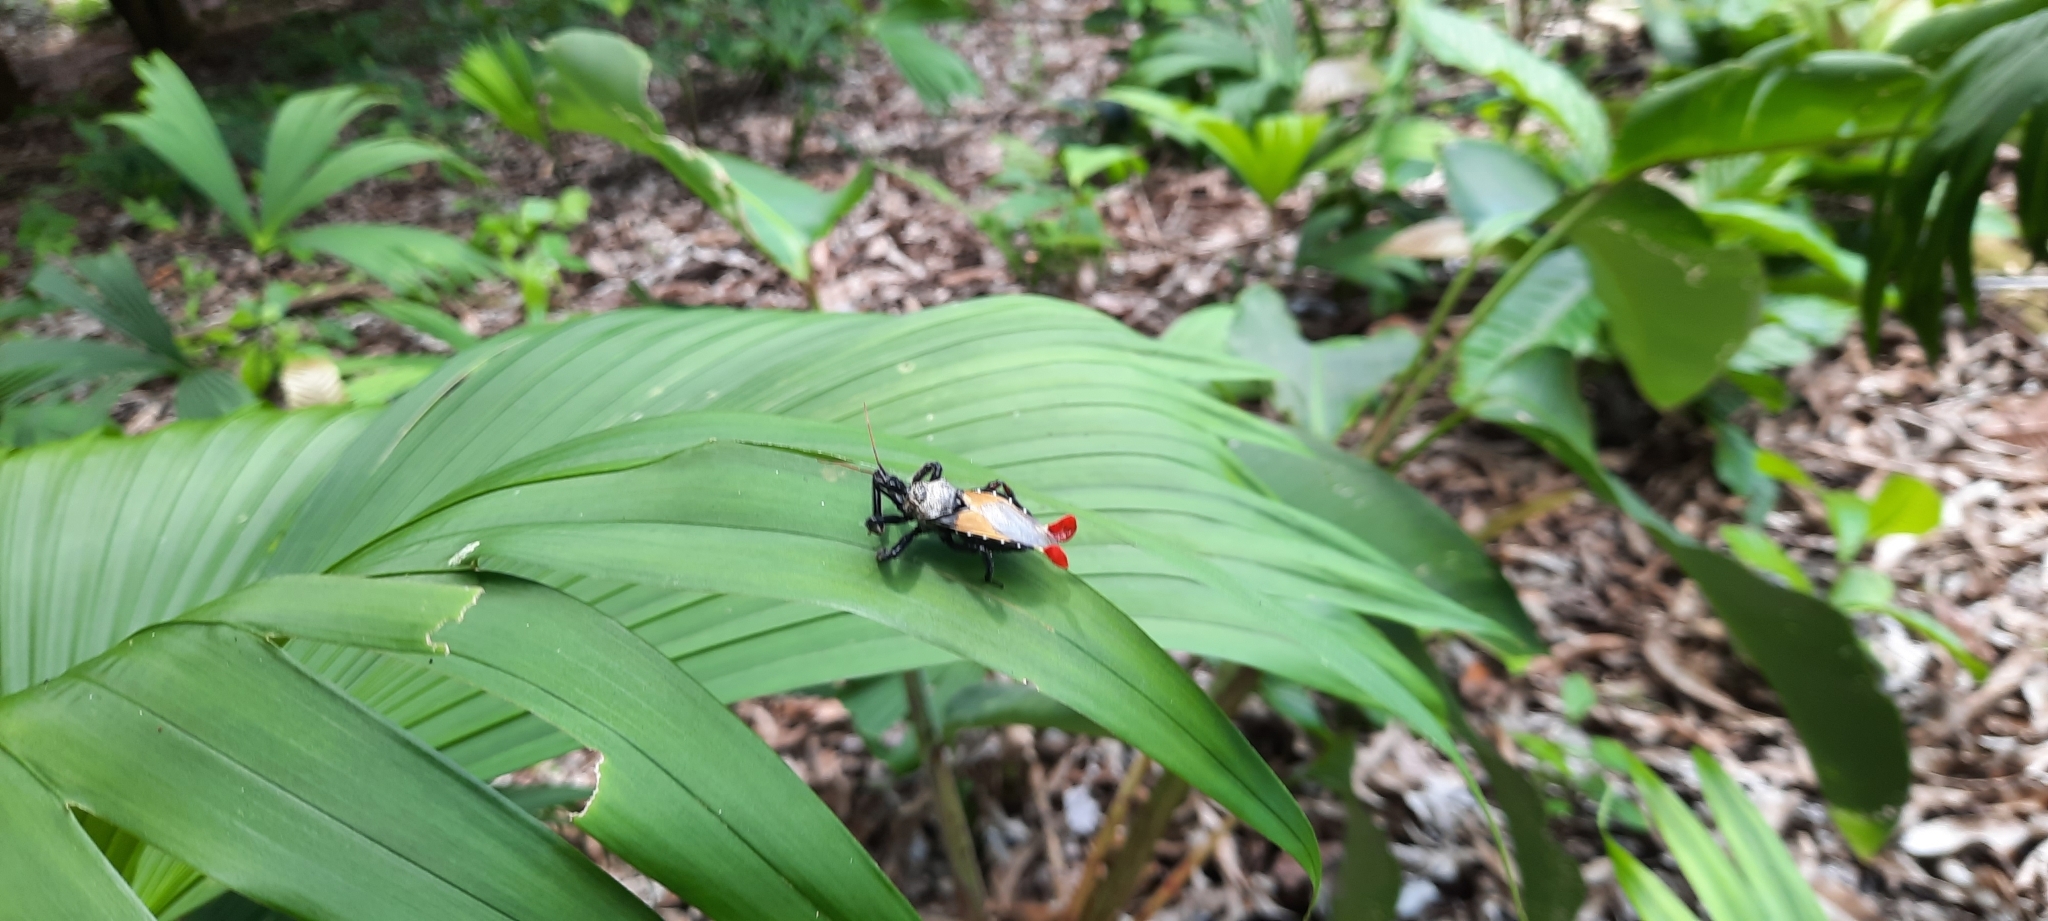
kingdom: Animalia
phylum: Arthropoda
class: Insecta
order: Hemiptera
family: Reduviidae
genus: Apiomerus
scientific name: Apiomerus vexillarius
